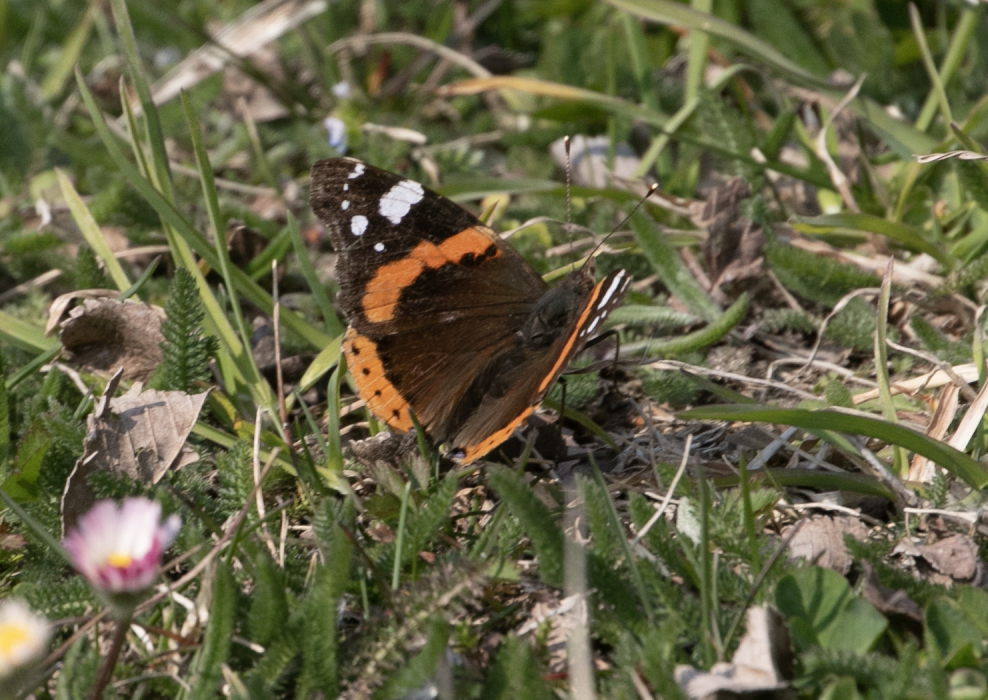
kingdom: Animalia
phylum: Arthropoda
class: Insecta
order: Lepidoptera
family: Nymphalidae
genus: Vanessa
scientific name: Vanessa atalanta
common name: Red admiral
